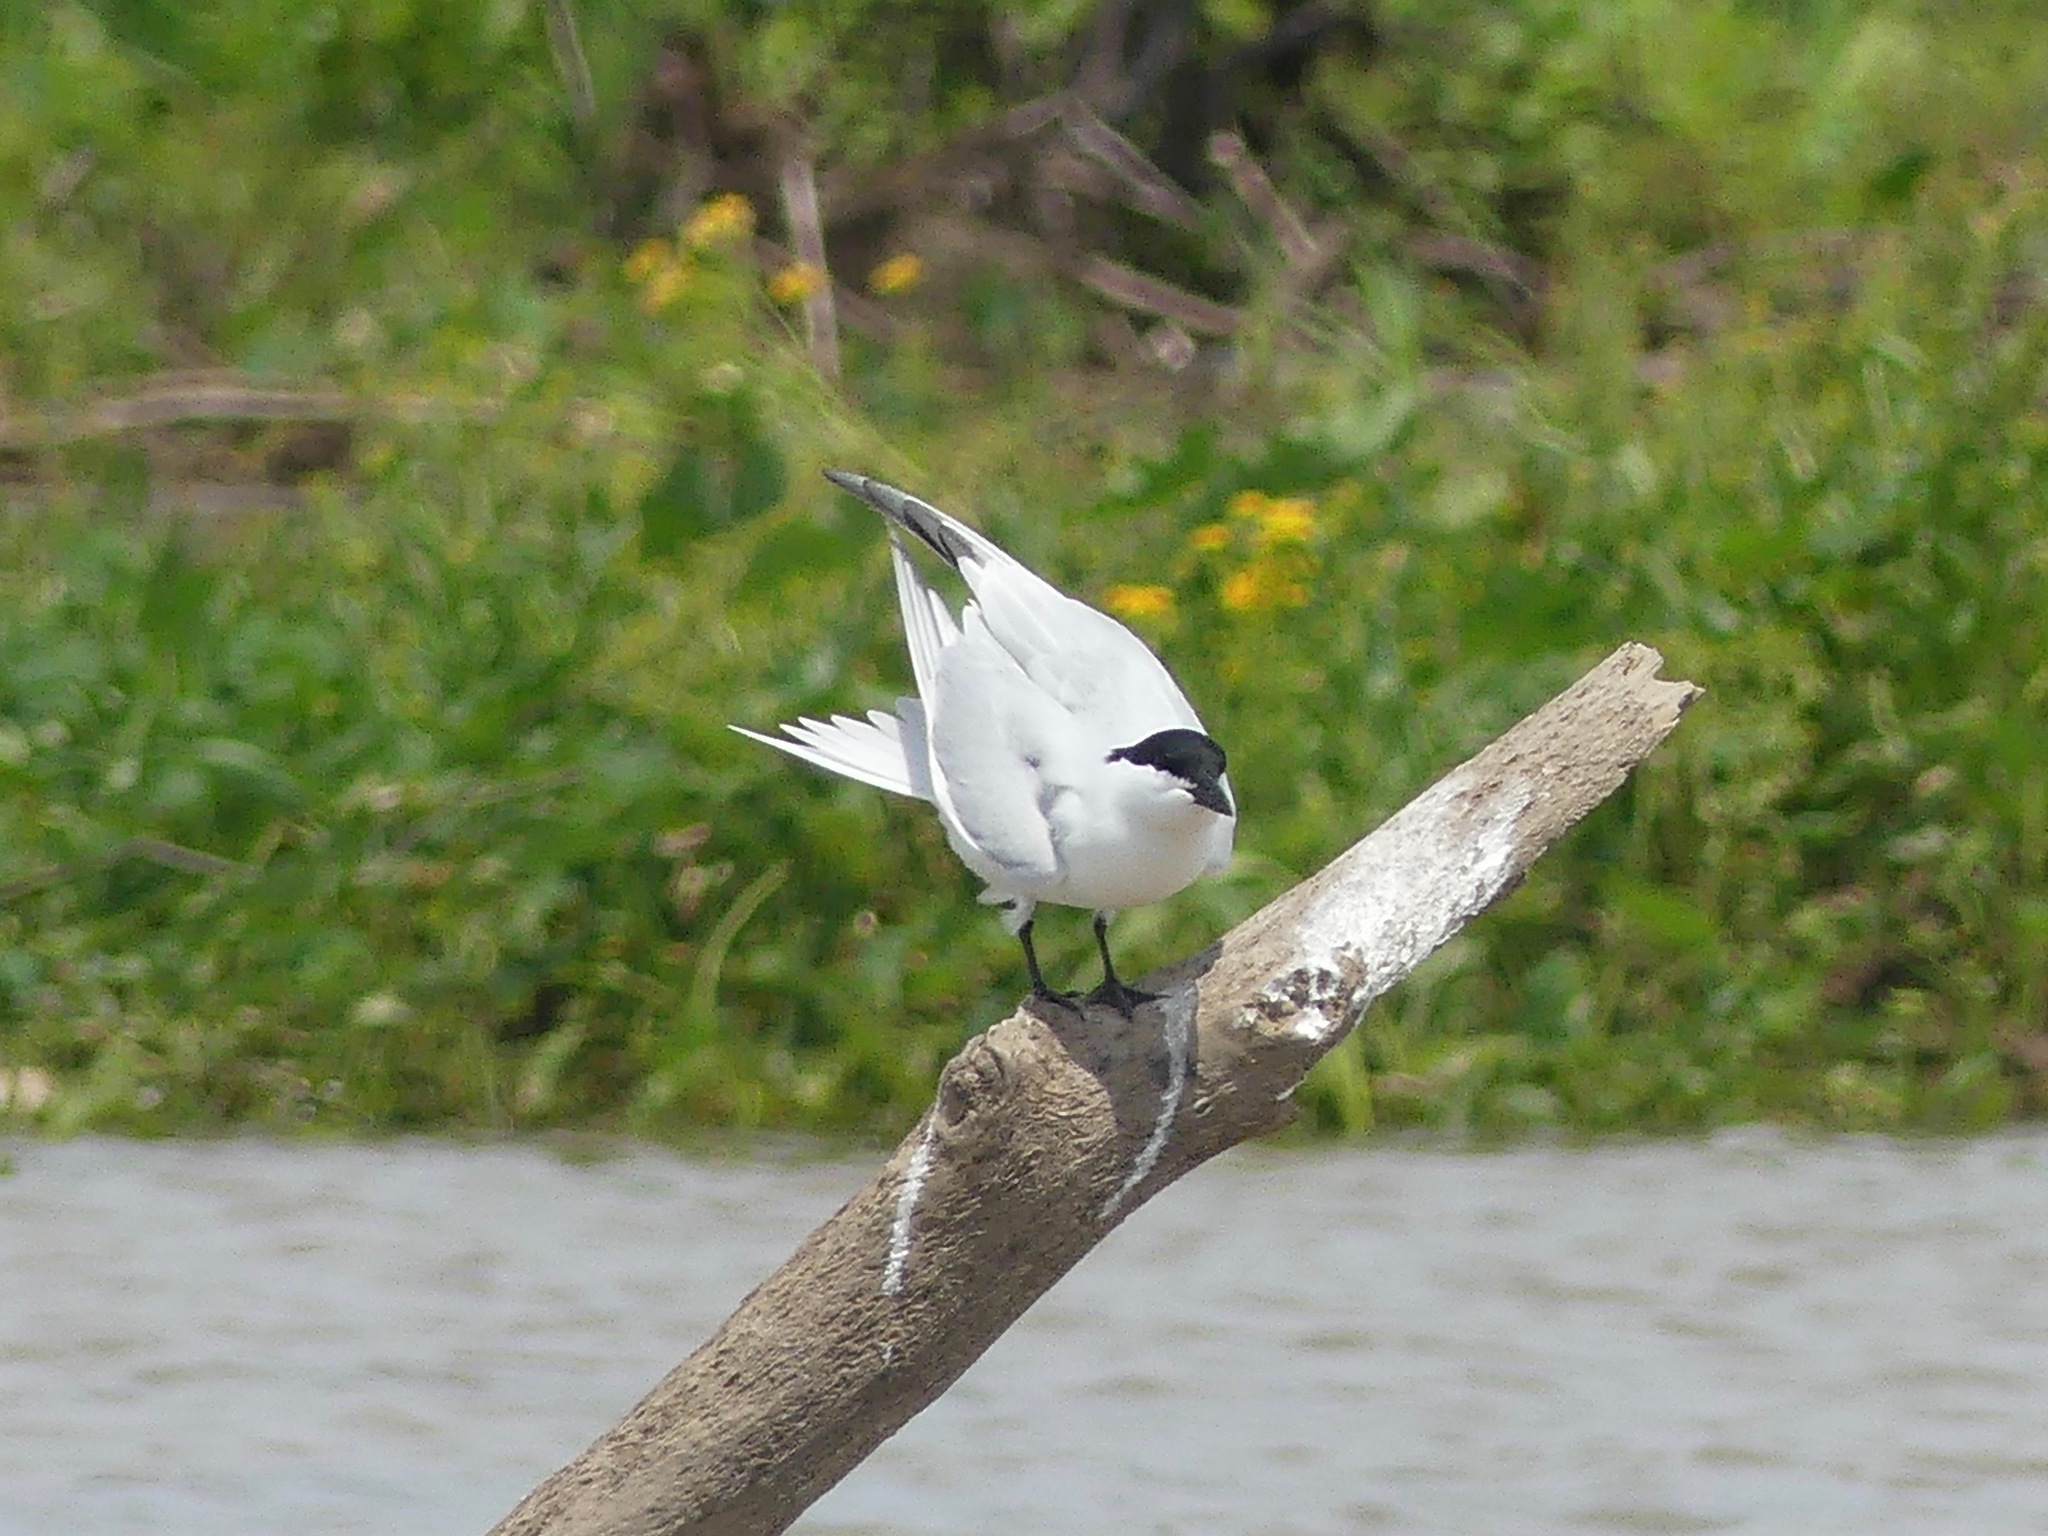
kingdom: Animalia
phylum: Chordata
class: Aves
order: Charadriiformes
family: Laridae
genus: Gelochelidon
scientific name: Gelochelidon nilotica
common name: Gull-billed tern
